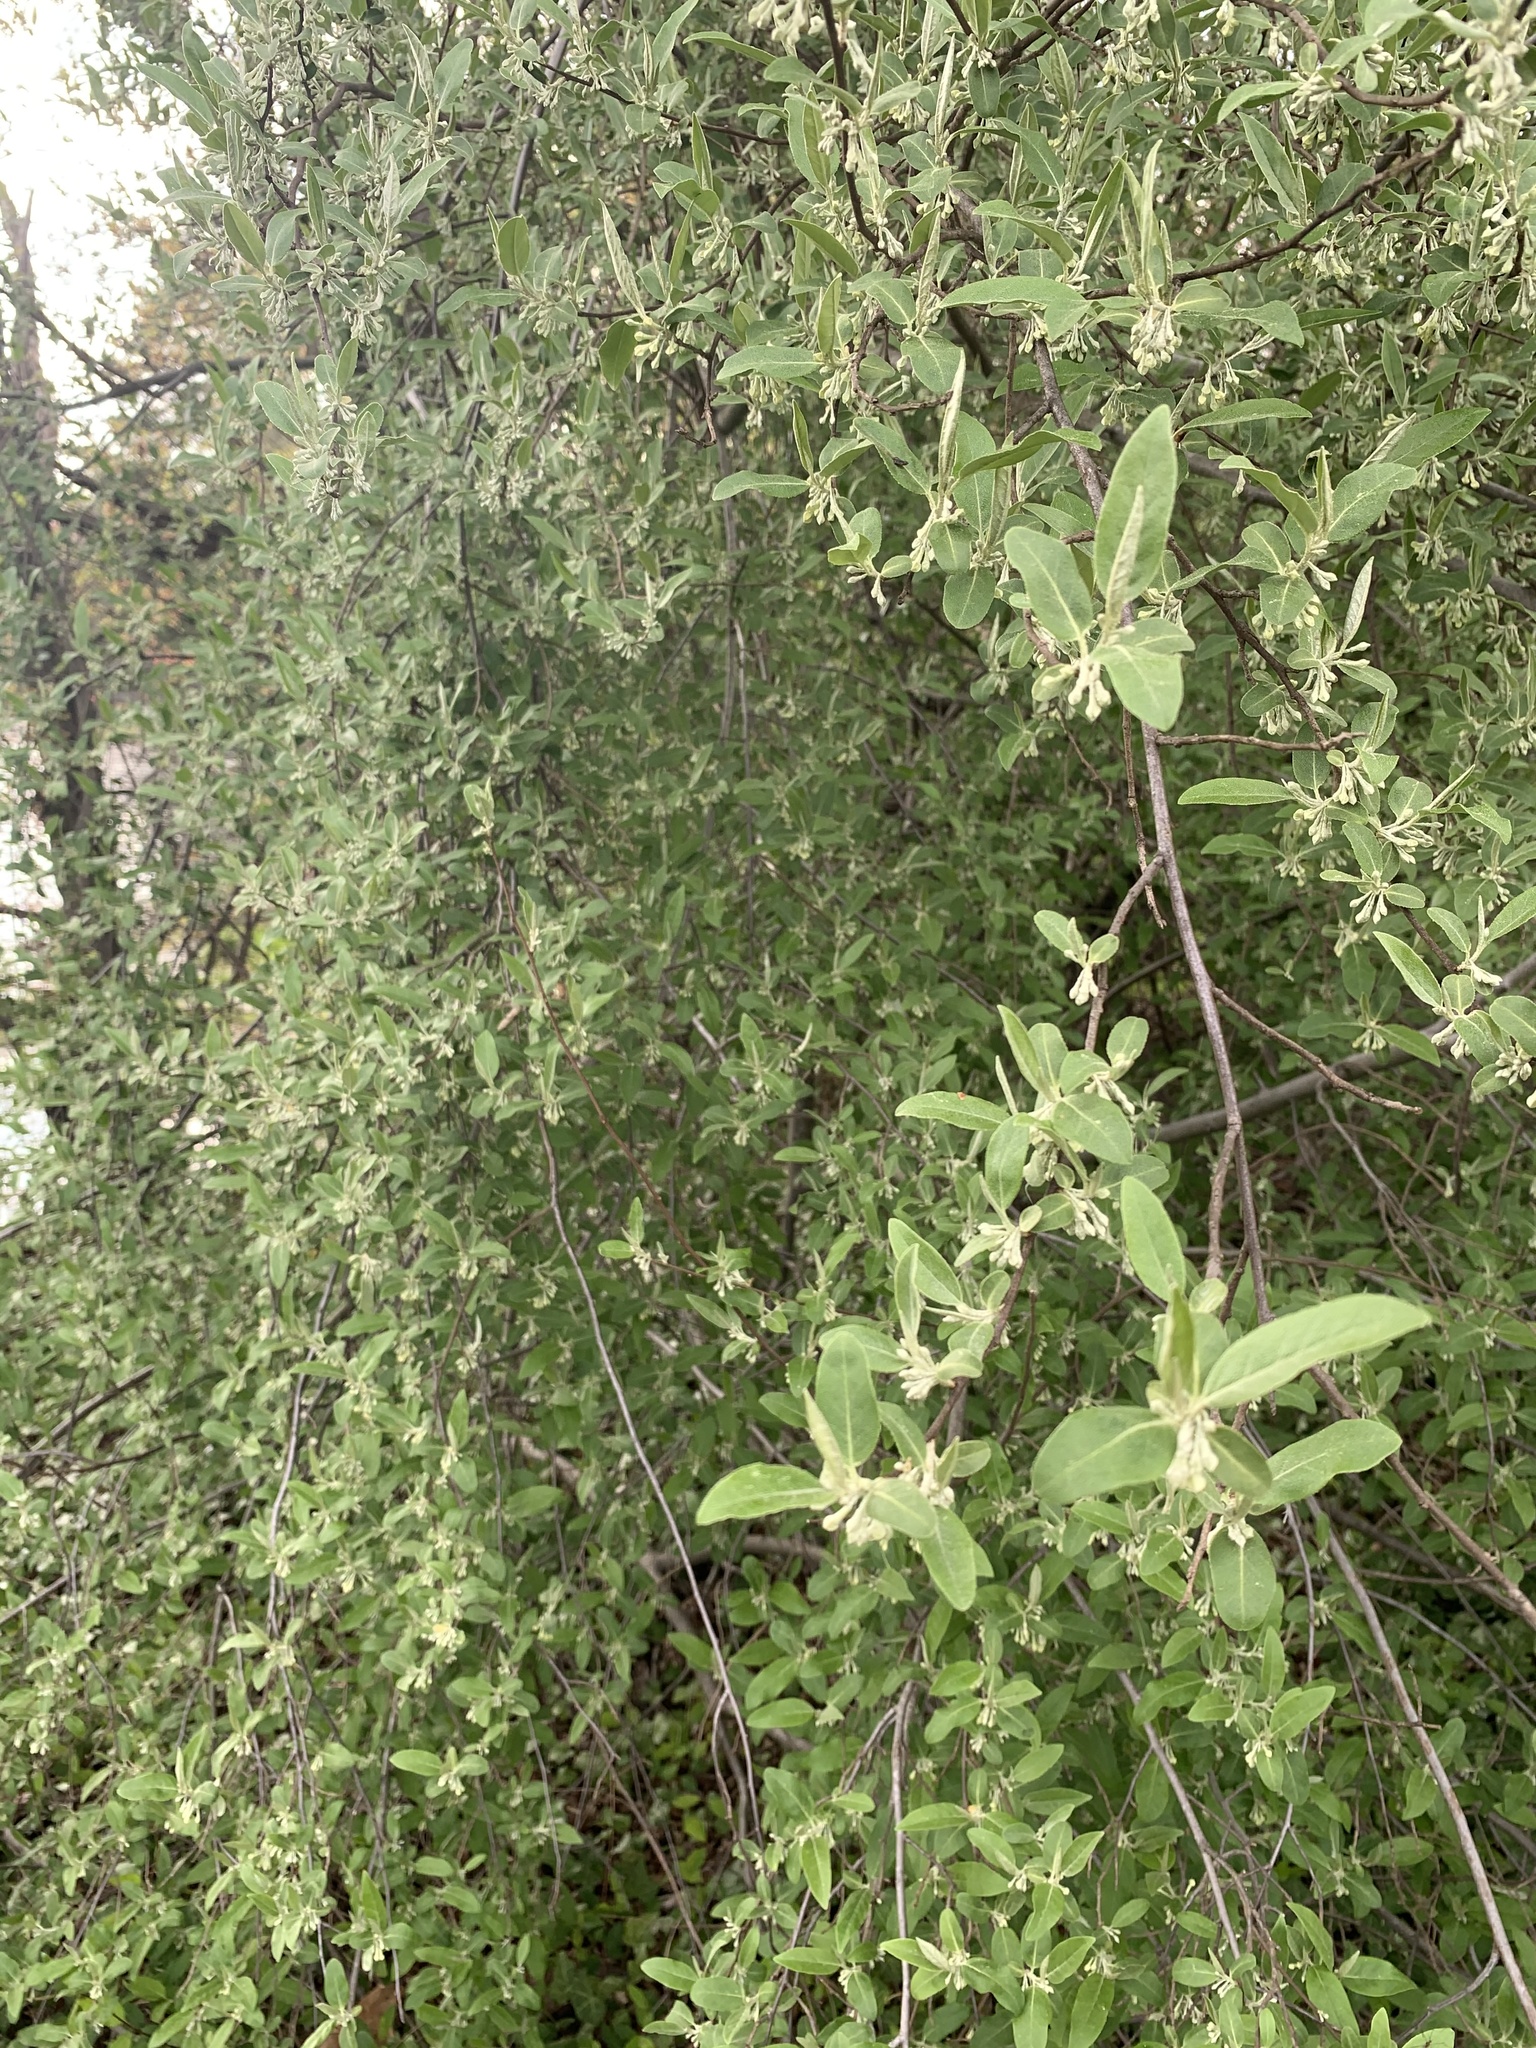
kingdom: Plantae
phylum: Tracheophyta
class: Magnoliopsida
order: Rosales
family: Elaeagnaceae
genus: Elaeagnus
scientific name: Elaeagnus umbellata
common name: Autumn olive
